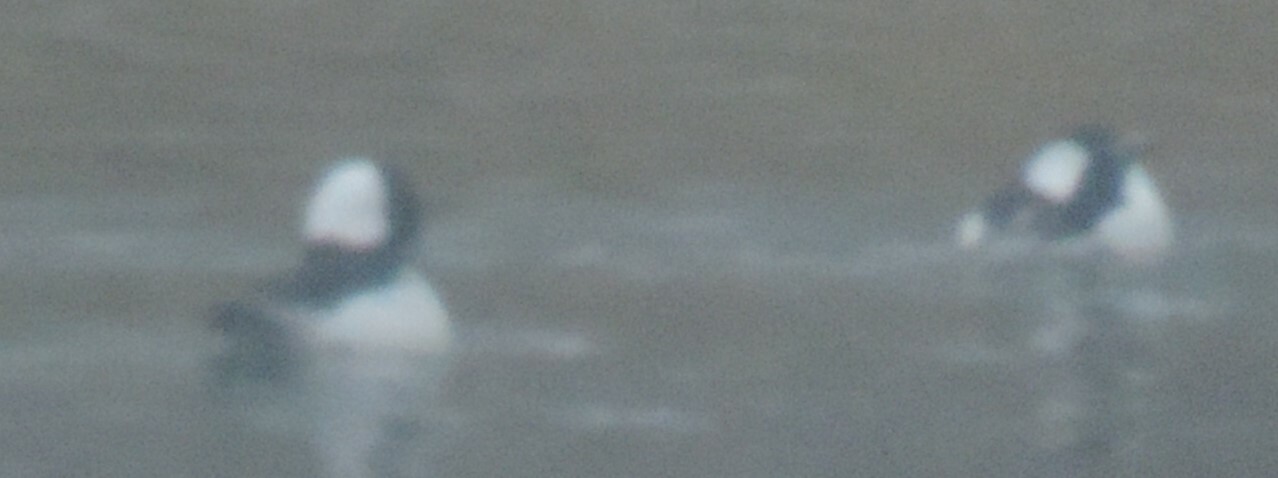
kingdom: Animalia
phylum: Chordata
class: Aves
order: Anseriformes
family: Anatidae
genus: Bucephala
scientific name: Bucephala albeola
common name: Bufflehead
